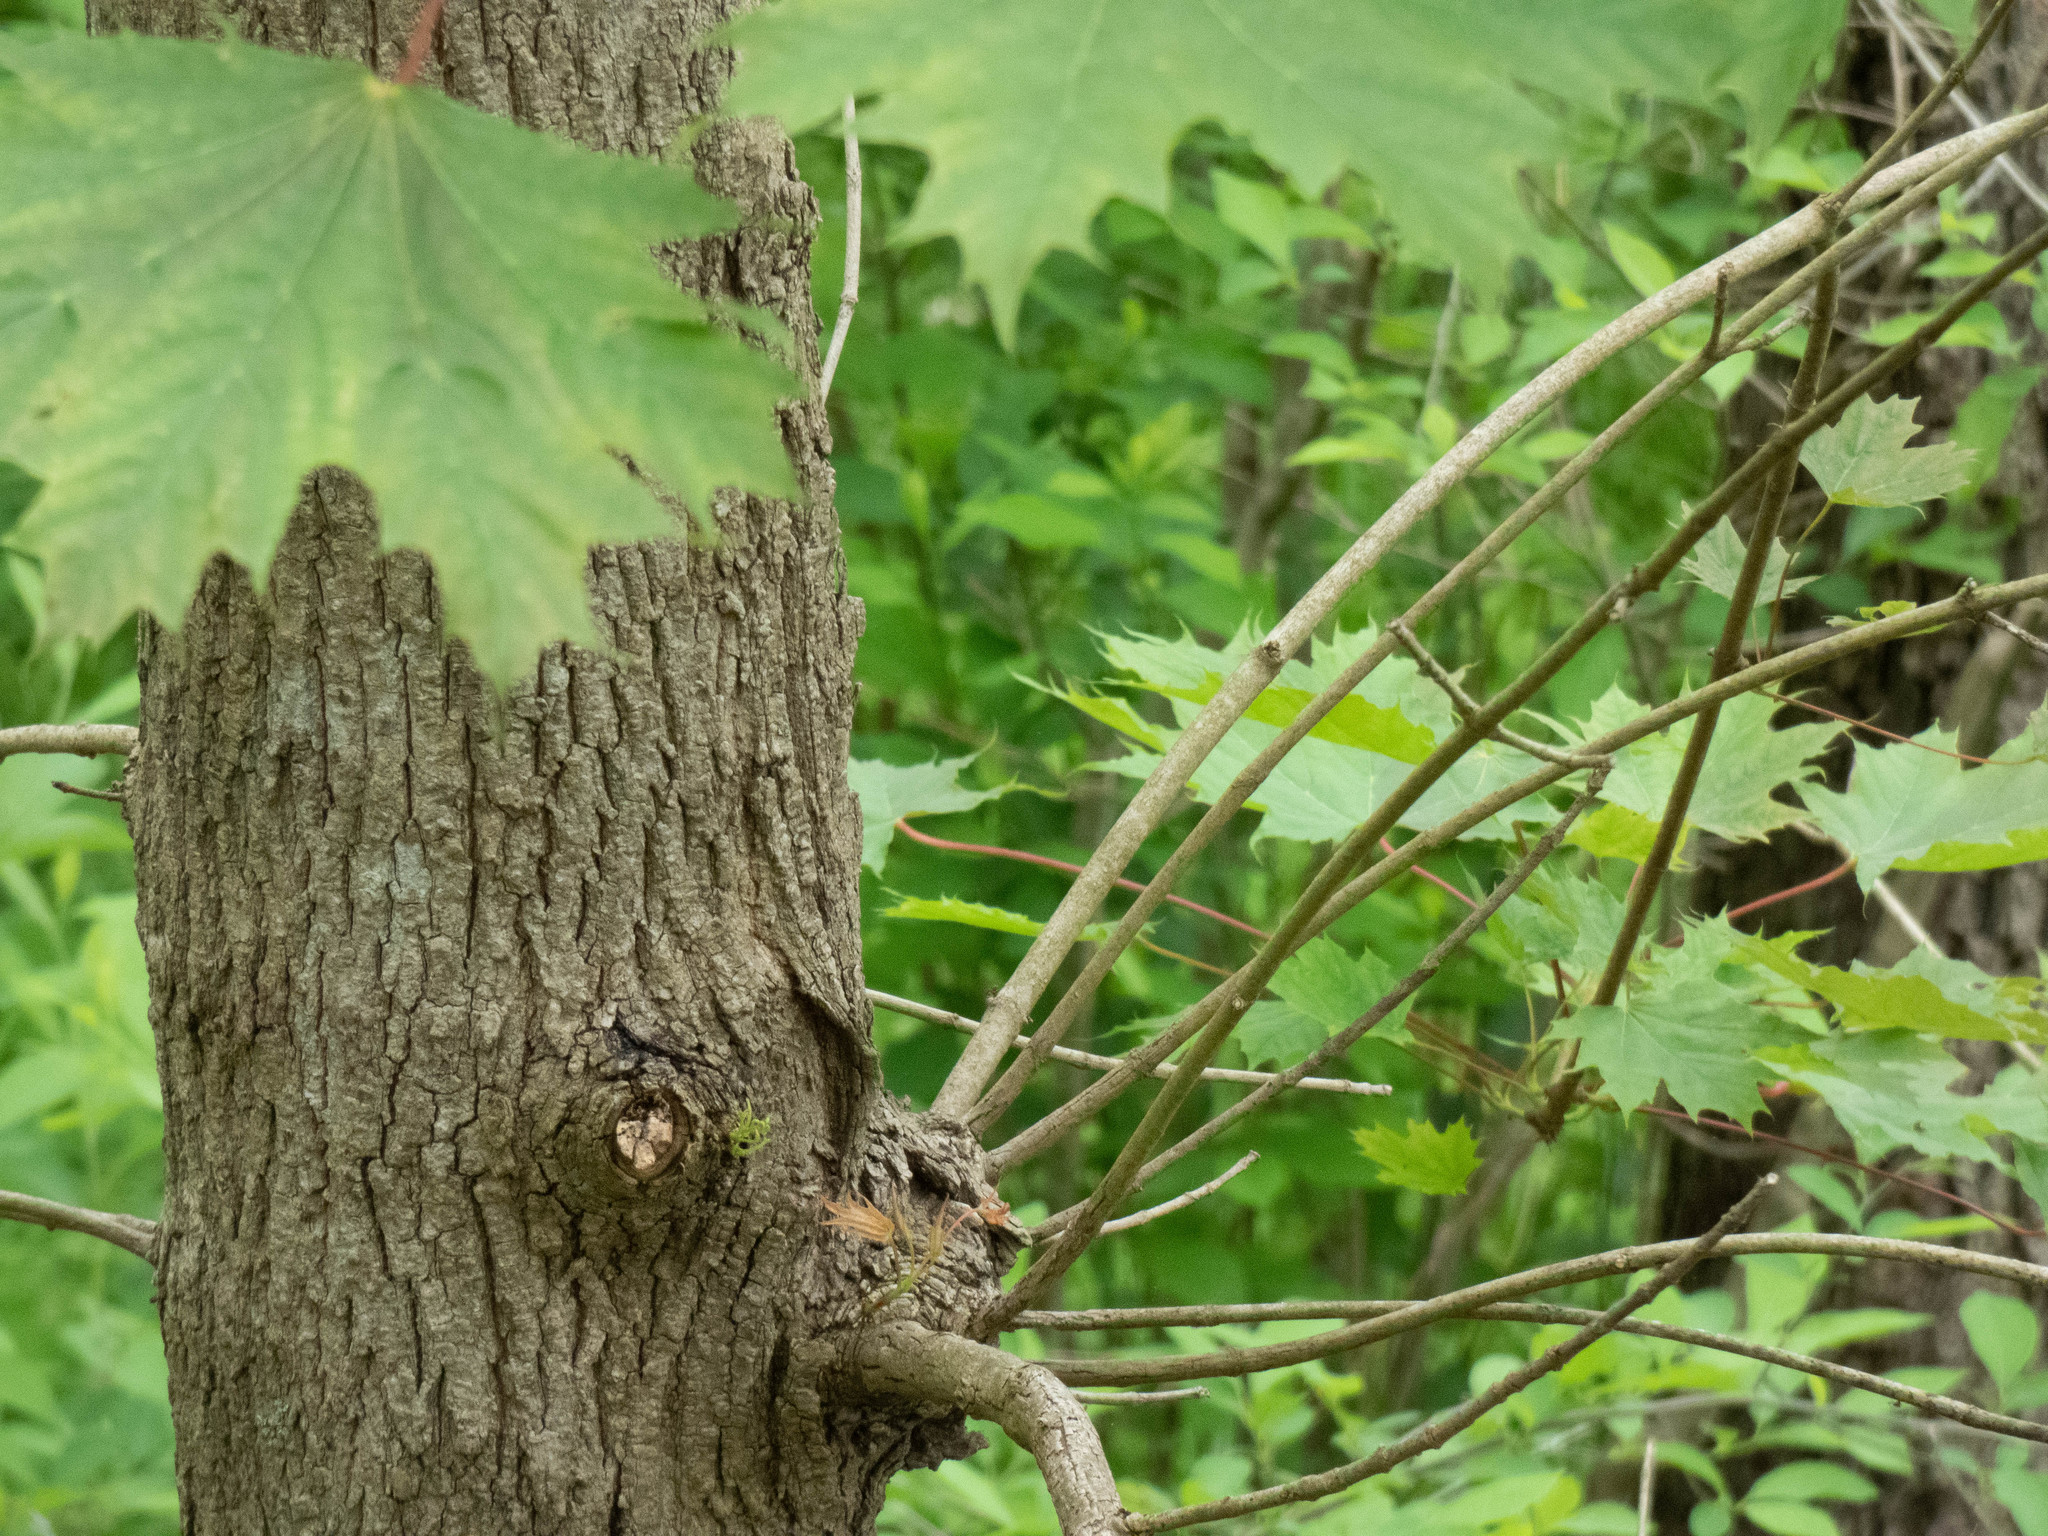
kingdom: Plantae
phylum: Tracheophyta
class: Magnoliopsida
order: Sapindales
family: Sapindaceae
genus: Acer
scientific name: Acer platanoides
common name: Norway maple
